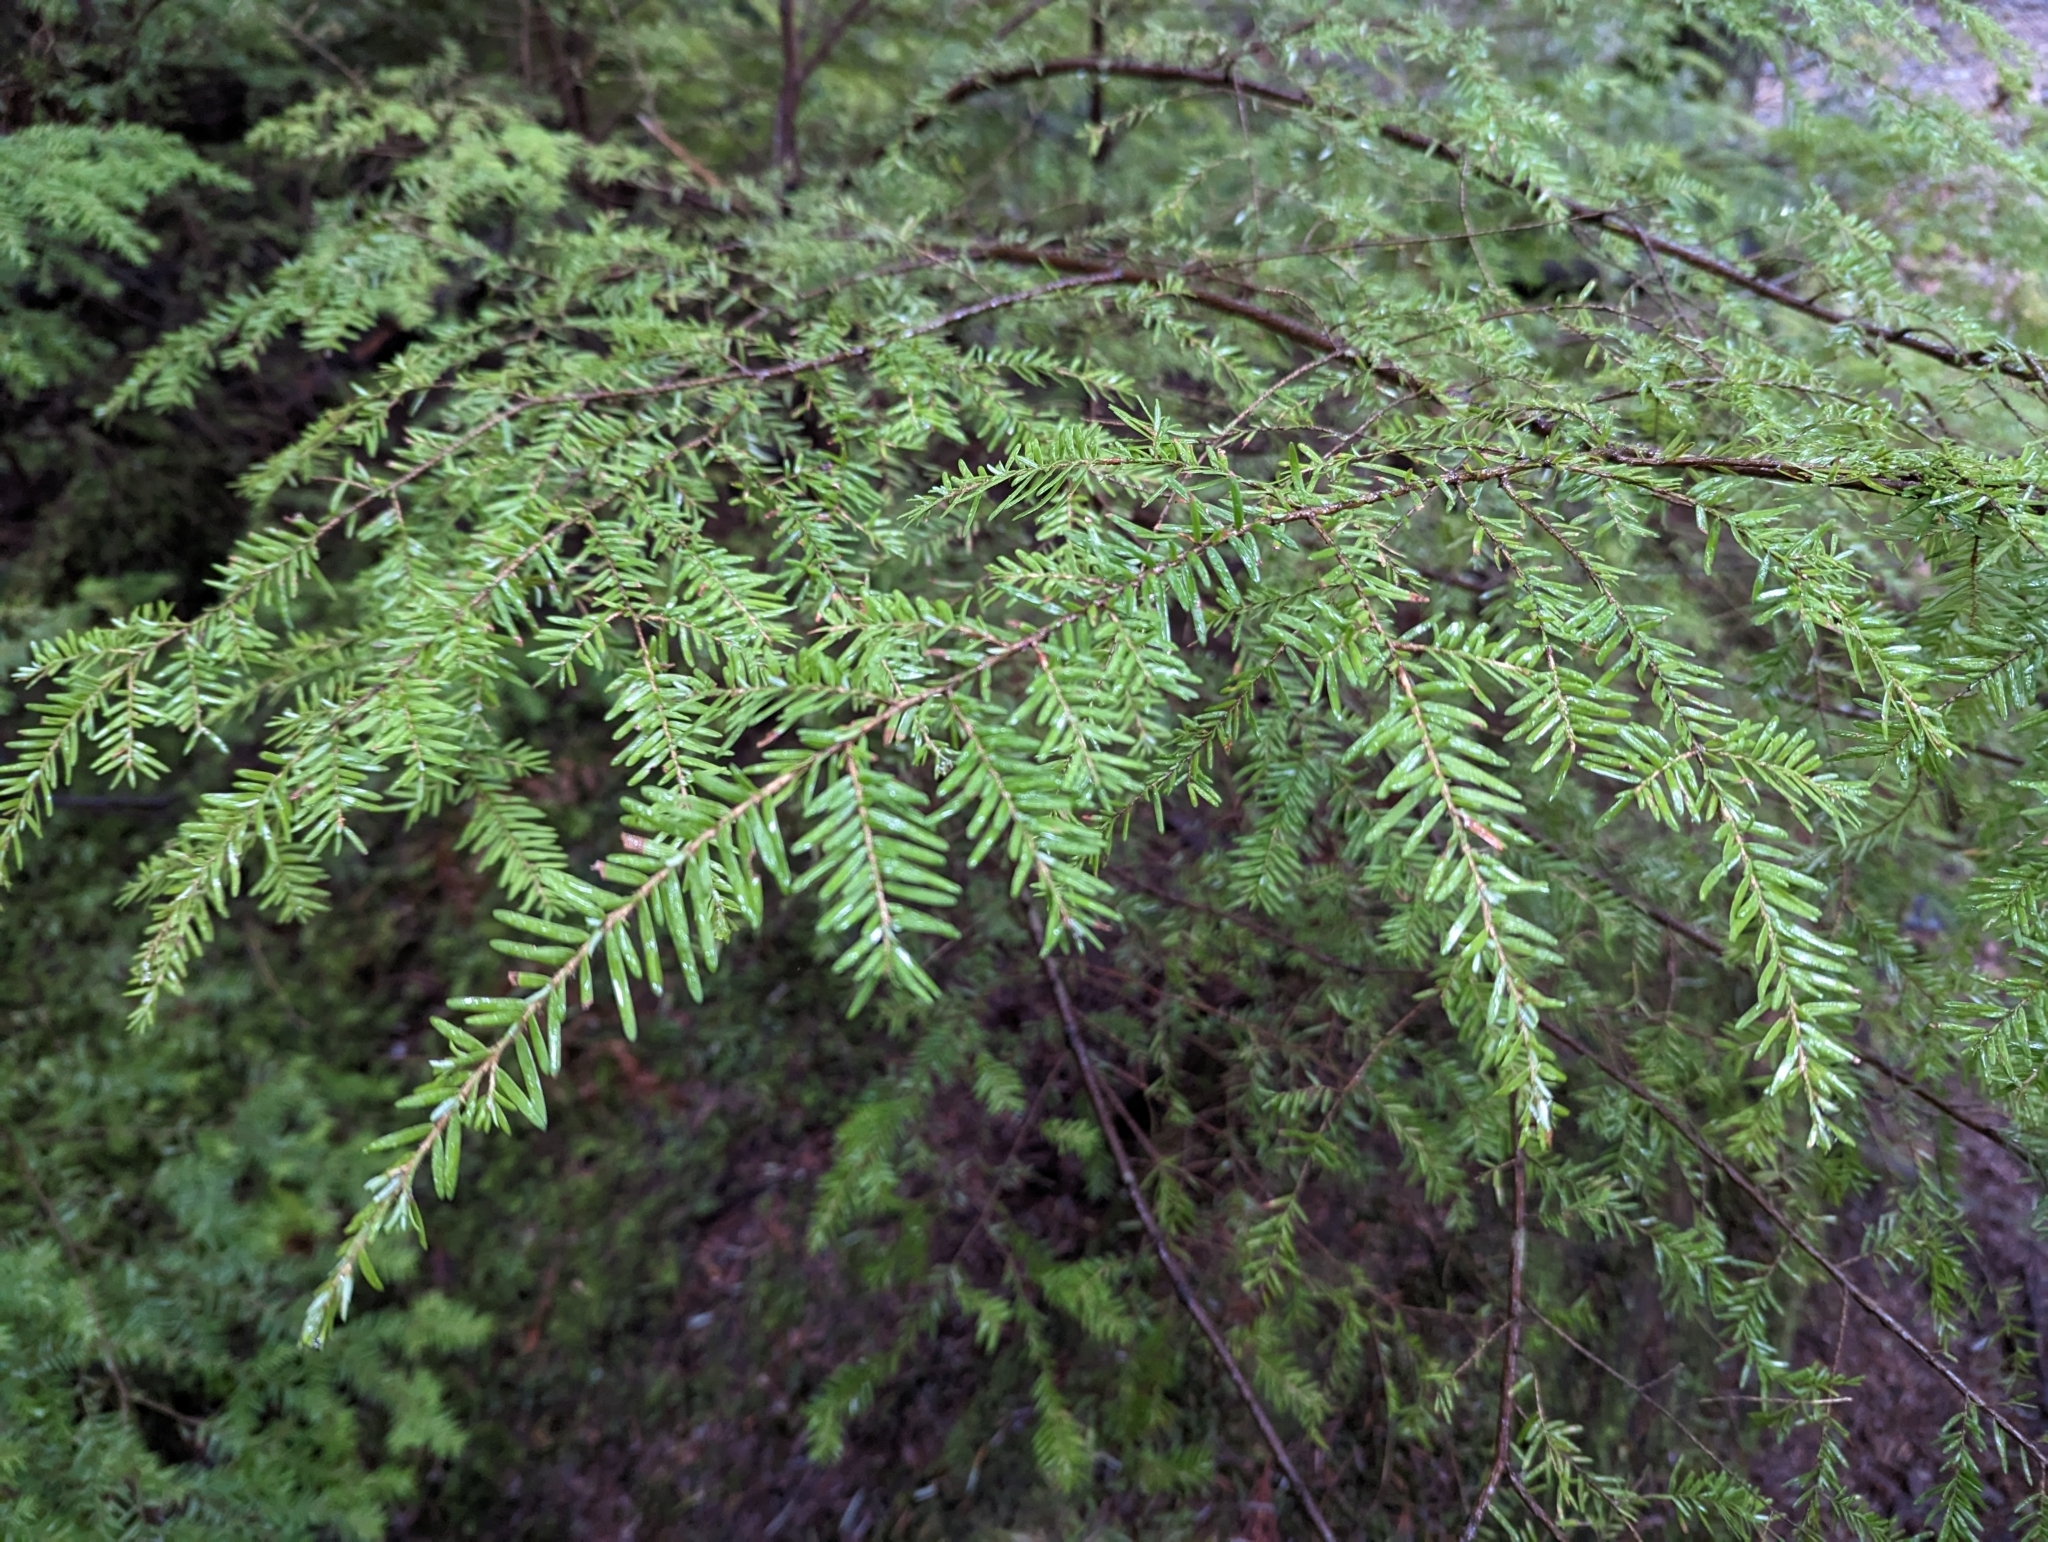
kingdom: Plantae
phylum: Tracheophyta
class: Pinopsida
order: Pinales
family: Pinaceae
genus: Tsuga
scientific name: Tsuga heterophylla
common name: Western hemlock
